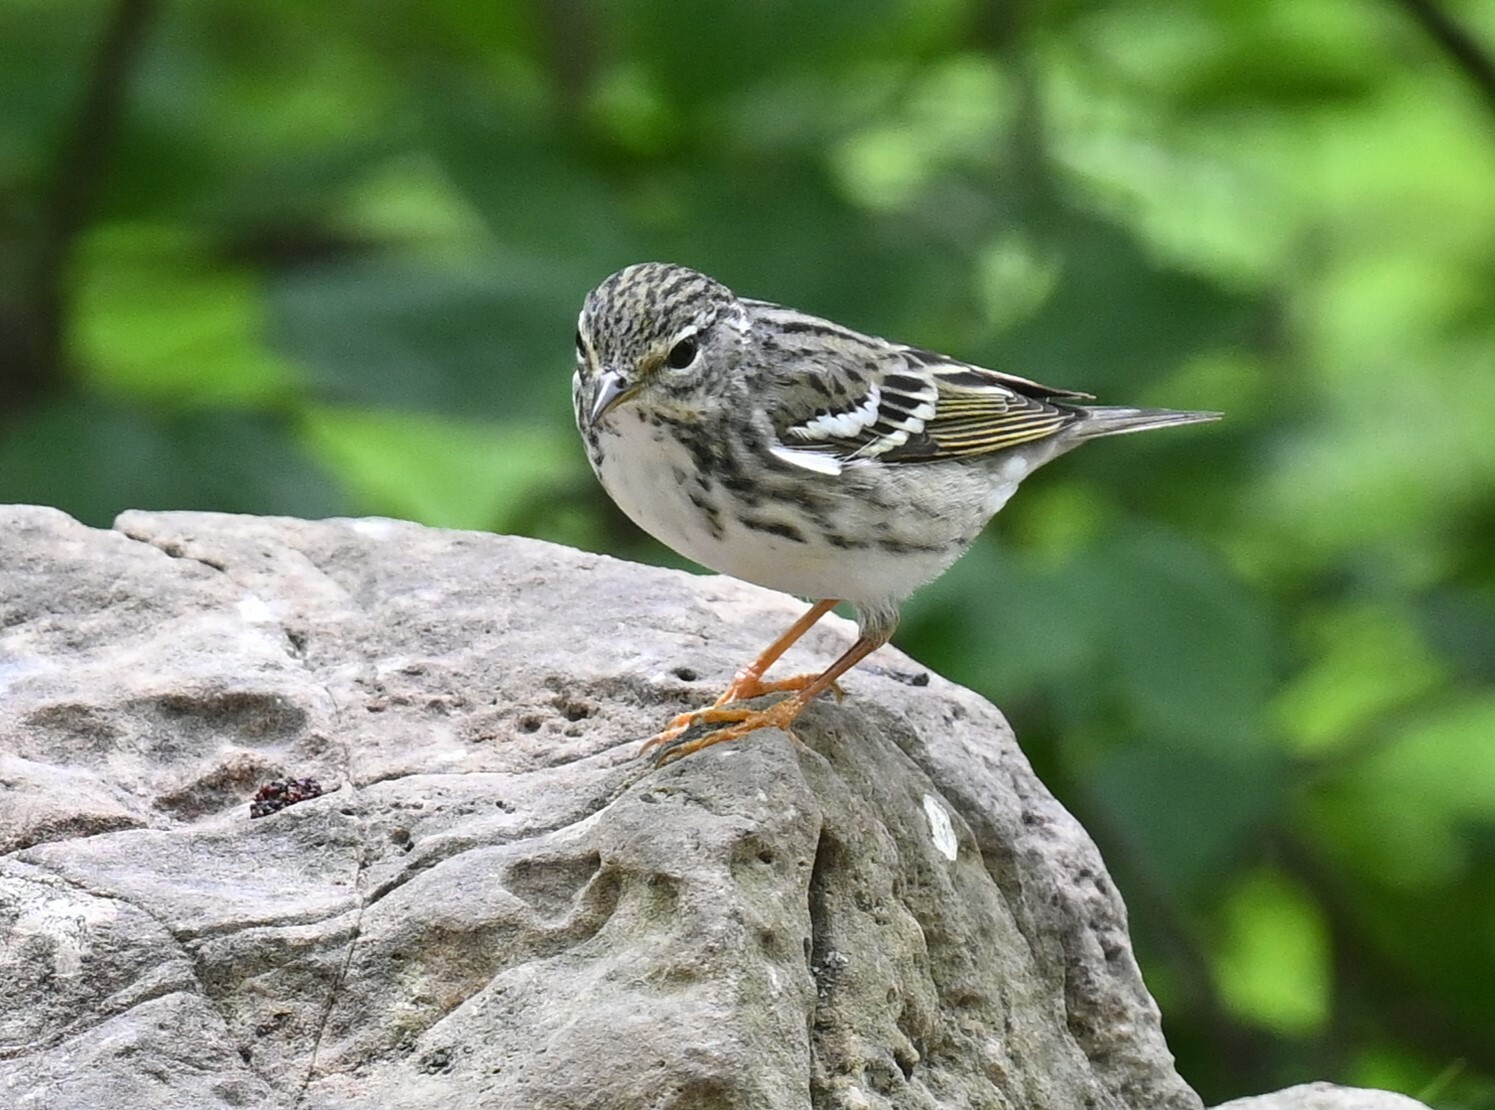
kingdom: Animalia
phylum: Chordata
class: Aves
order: Passeriformes
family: Parulidae
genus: Setophaga
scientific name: Setophaga striata
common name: Blackpoll warbler
